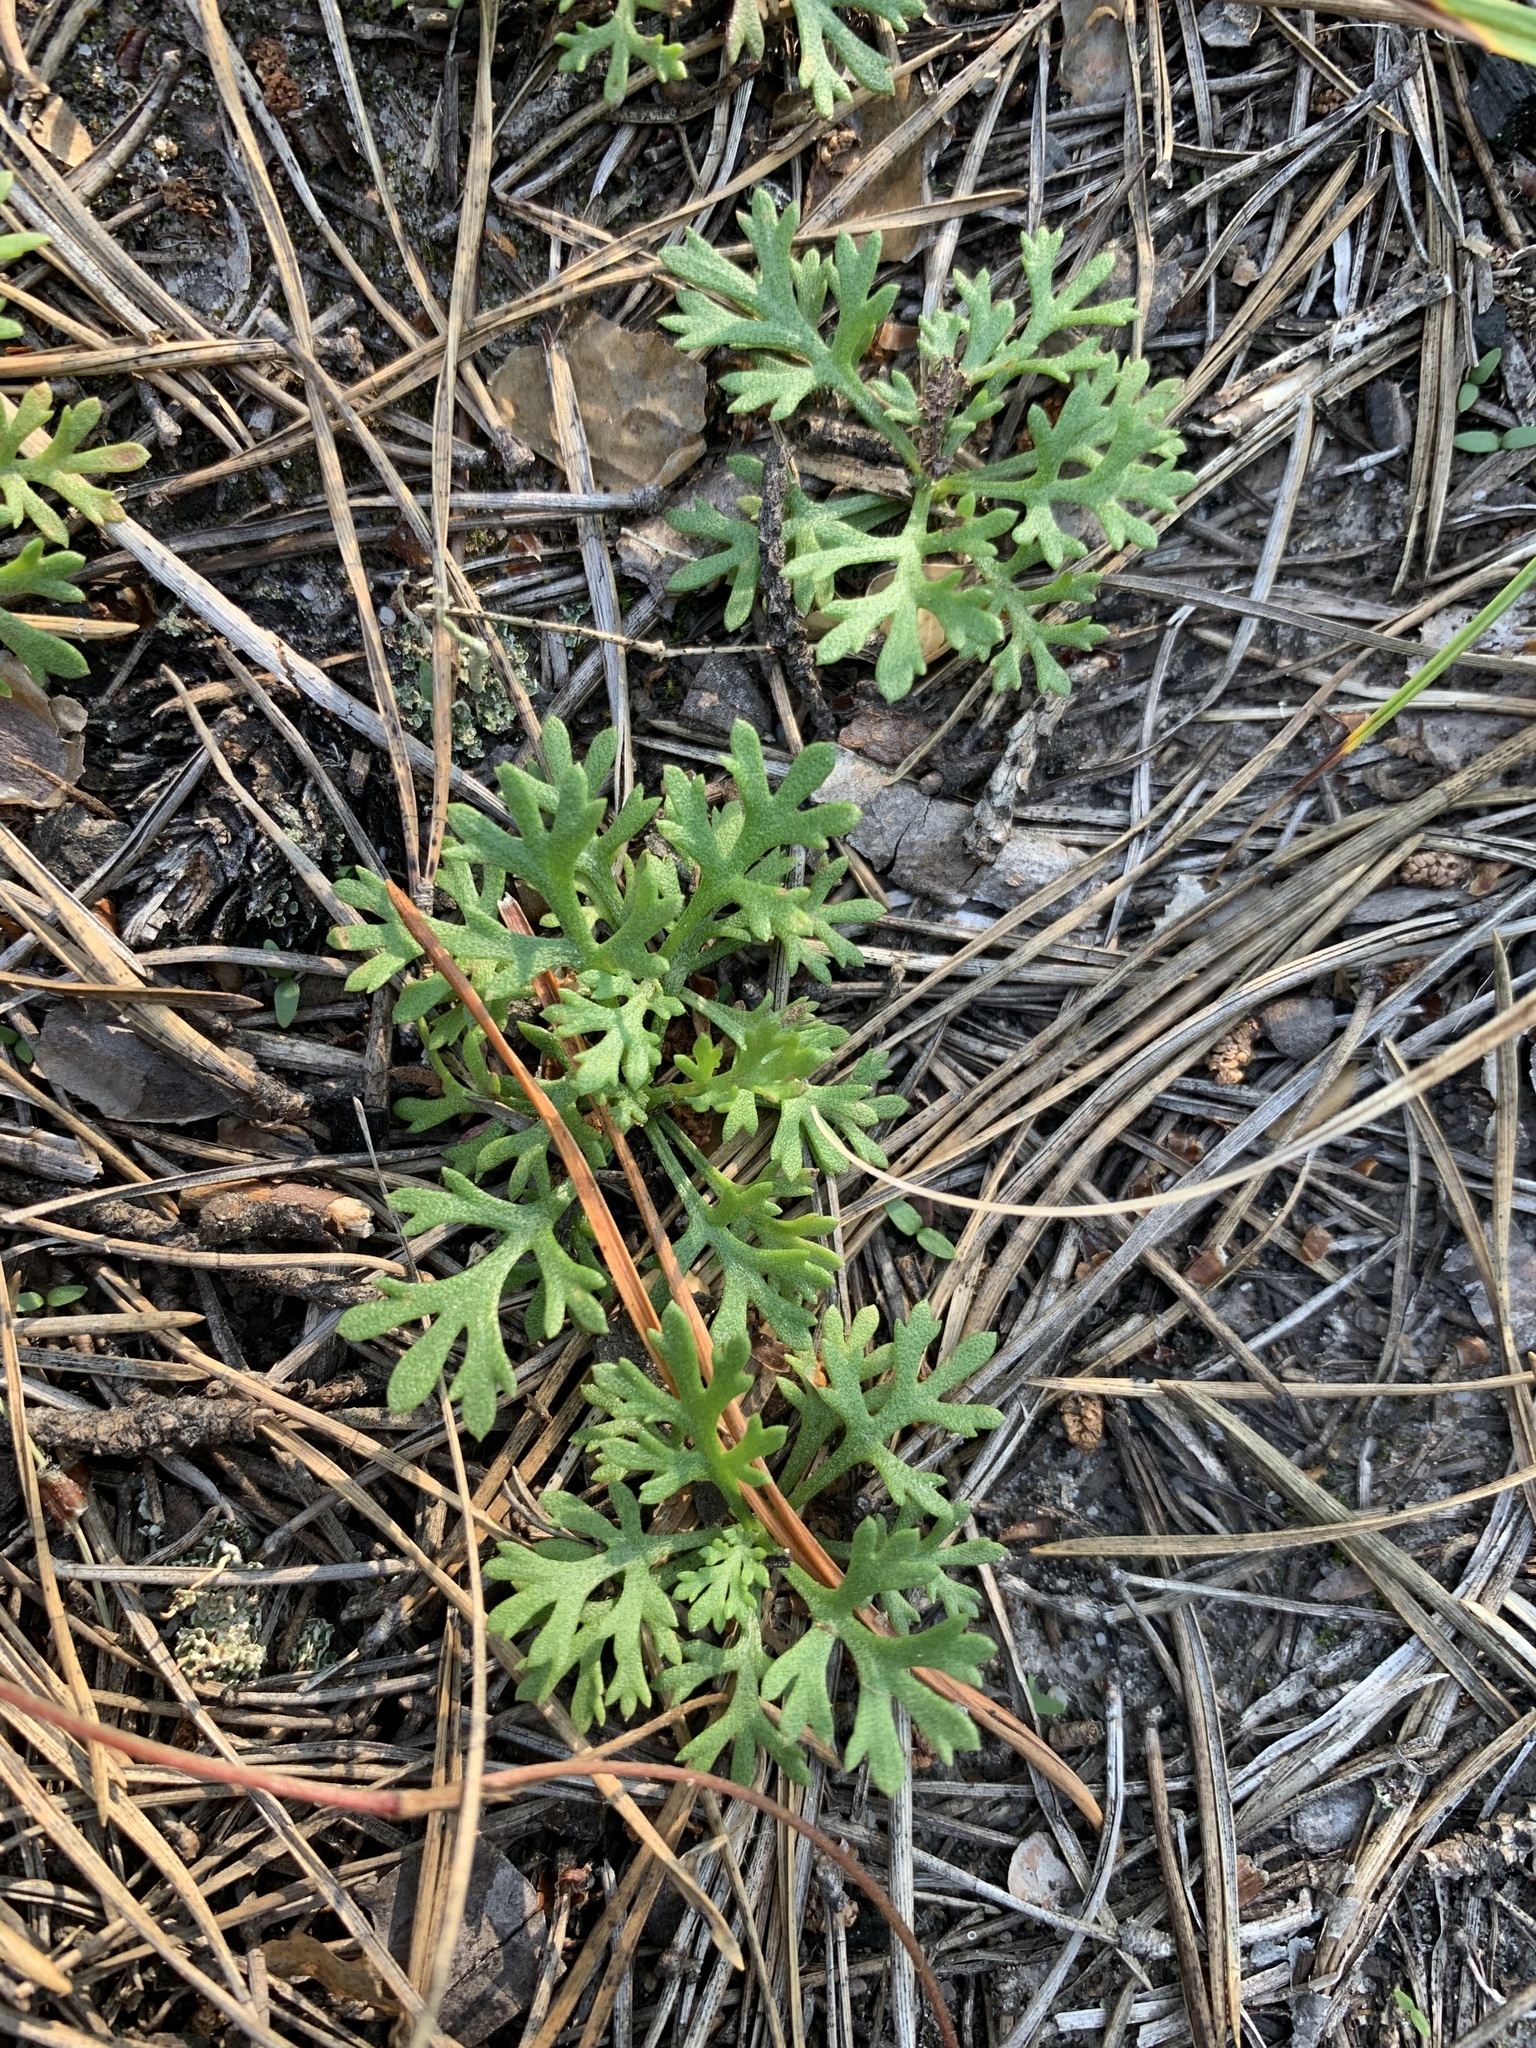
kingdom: Plantae
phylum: Tracheophyta
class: Magnoliopsida
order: Asterales
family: Asteraceae
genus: Chrysanthemum
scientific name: Chrysanthemum zawadzkii
